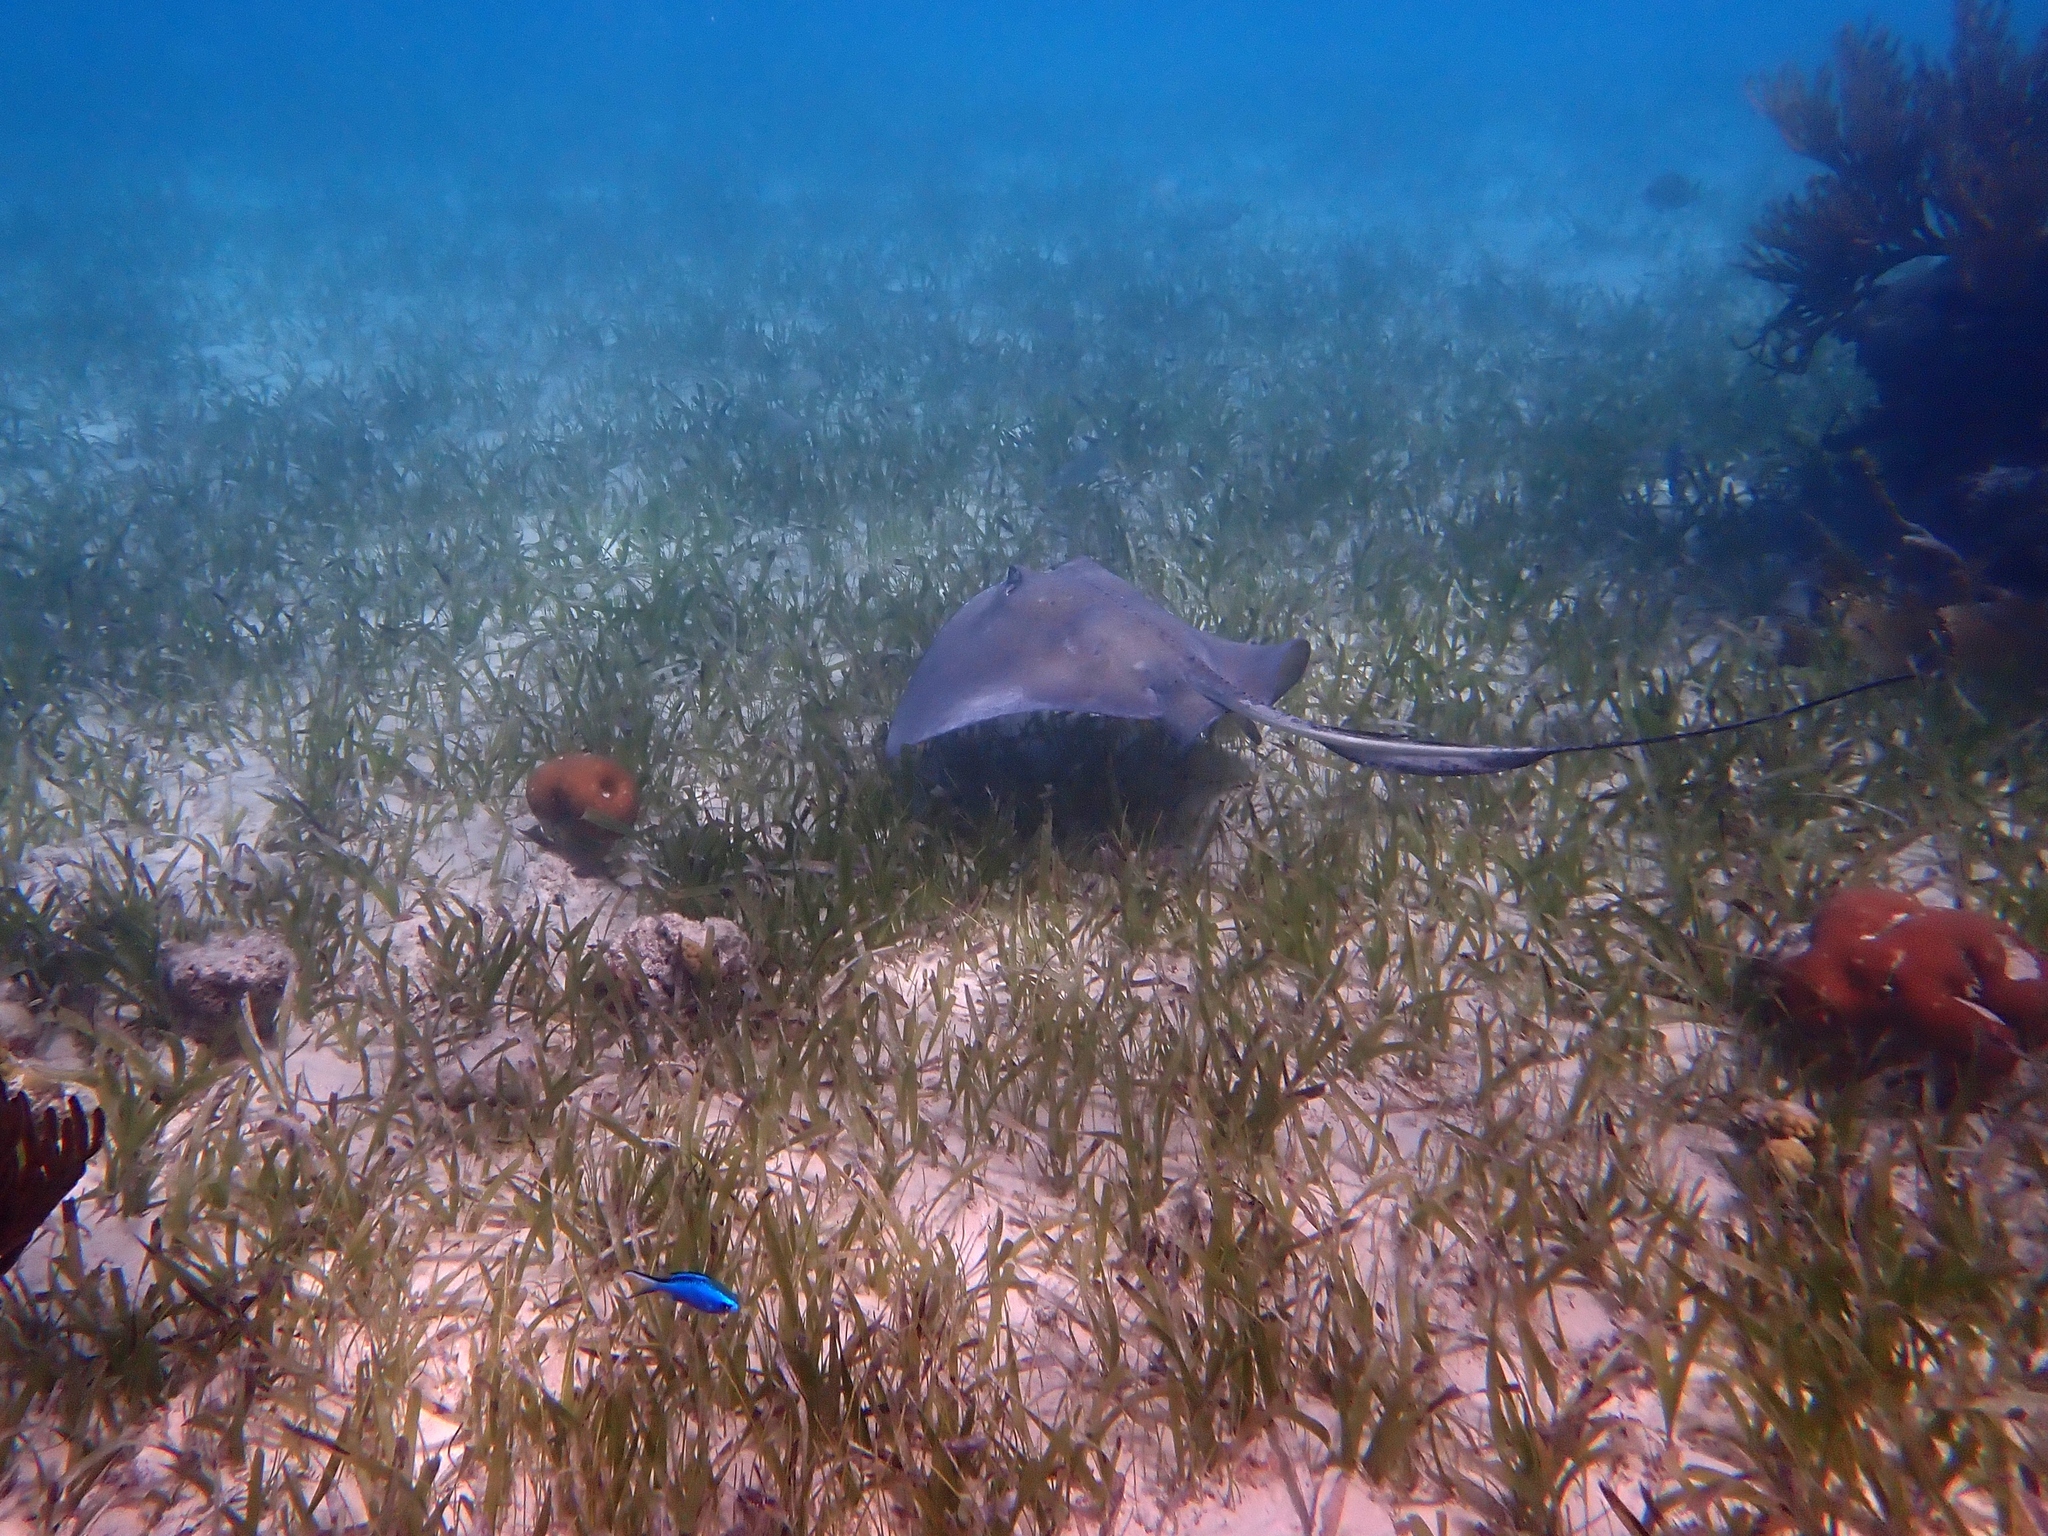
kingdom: Animalia
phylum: Chordata
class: Elasmobranchii
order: Myliobatiformes
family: Dasyatidae
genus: Hypanus
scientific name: Hypanus americanus
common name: Southern stingray
